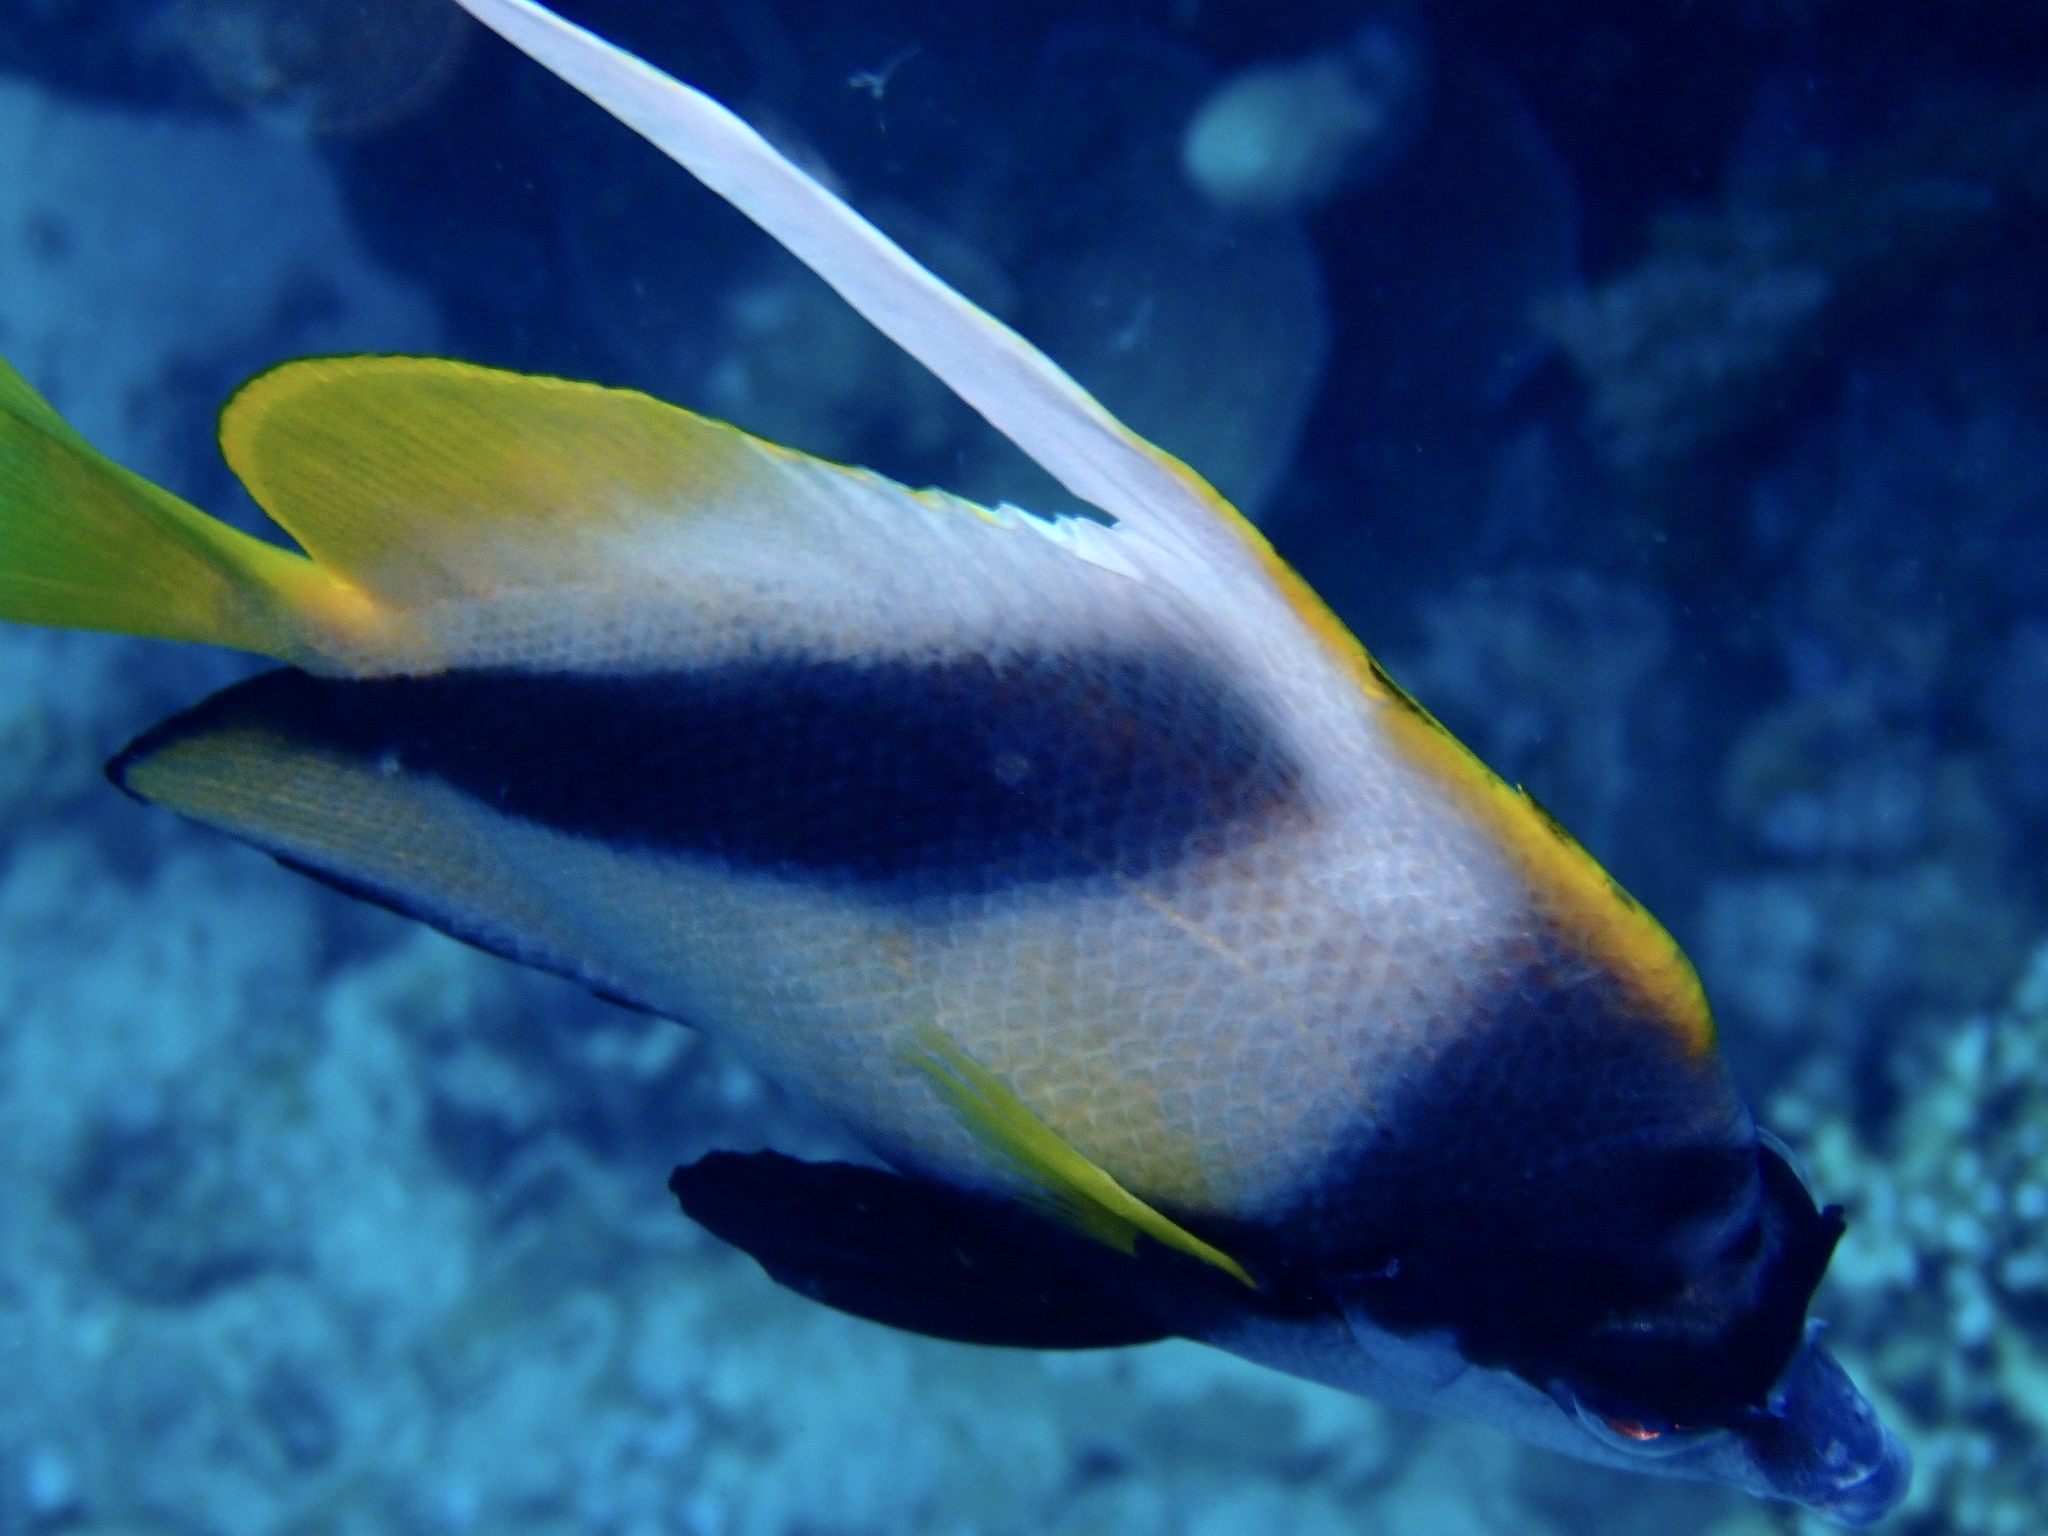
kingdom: Animalia
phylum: Chordata
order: Perciformes
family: Chaetodontidae
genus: Heniochus
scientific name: Heniochus intermedius
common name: Red sea bannerfish
